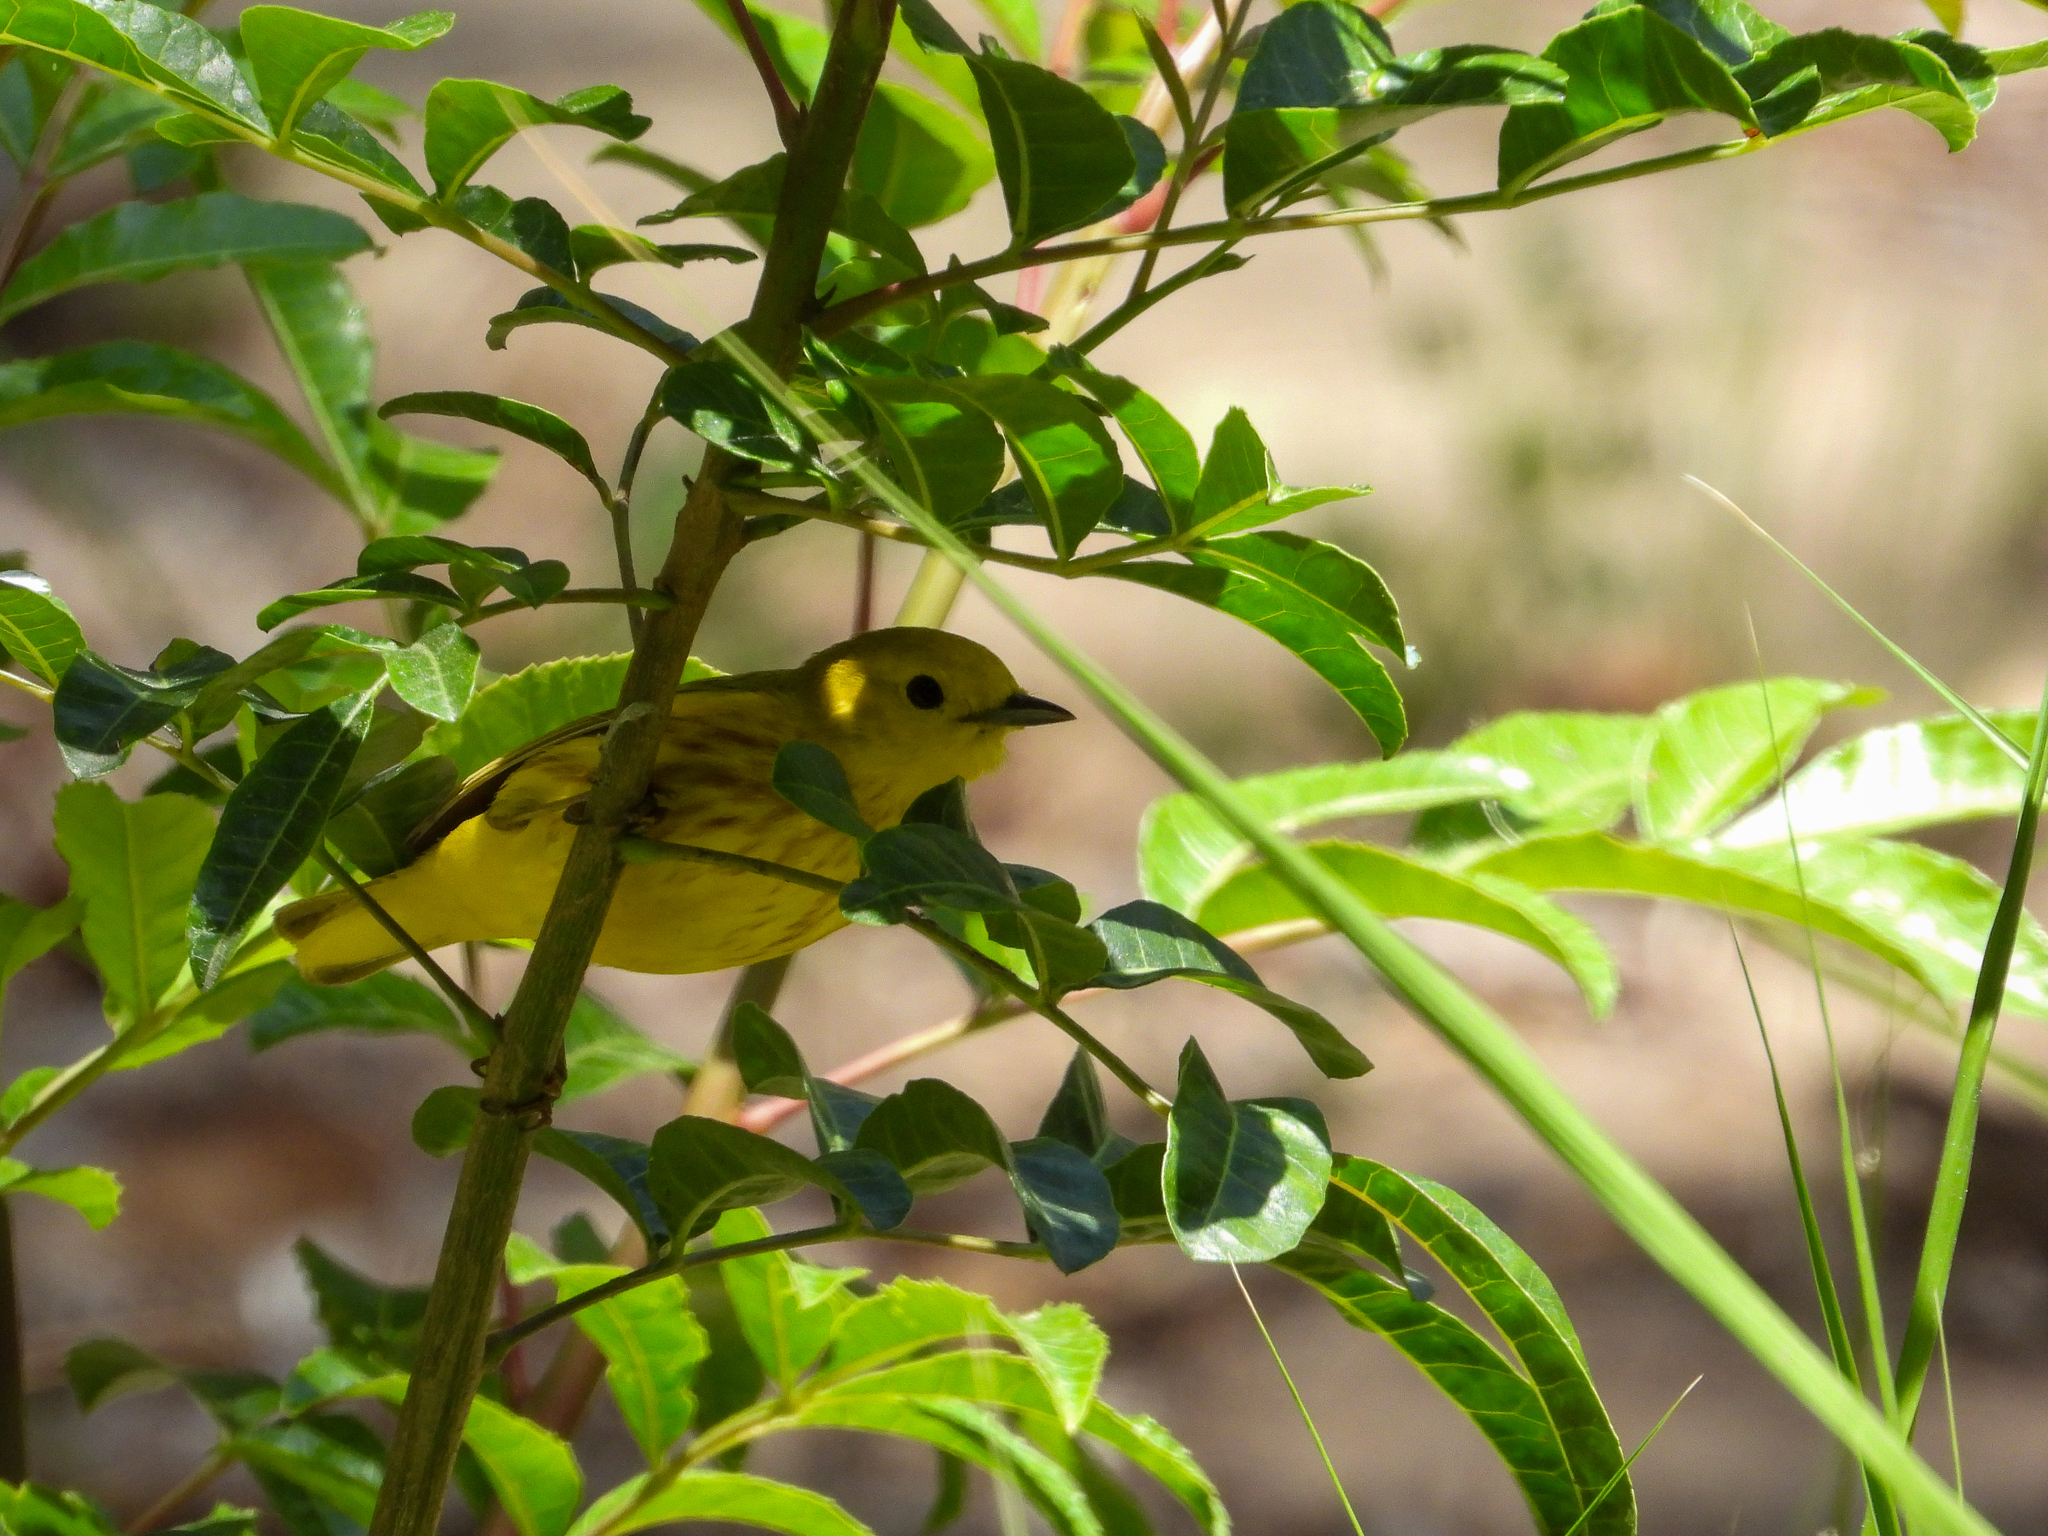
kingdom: Animalia
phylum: Chordata
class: Aves
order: Passeriformes
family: Parulidae
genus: Setophaga
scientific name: Setophaga petechia
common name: Yellow warbler
